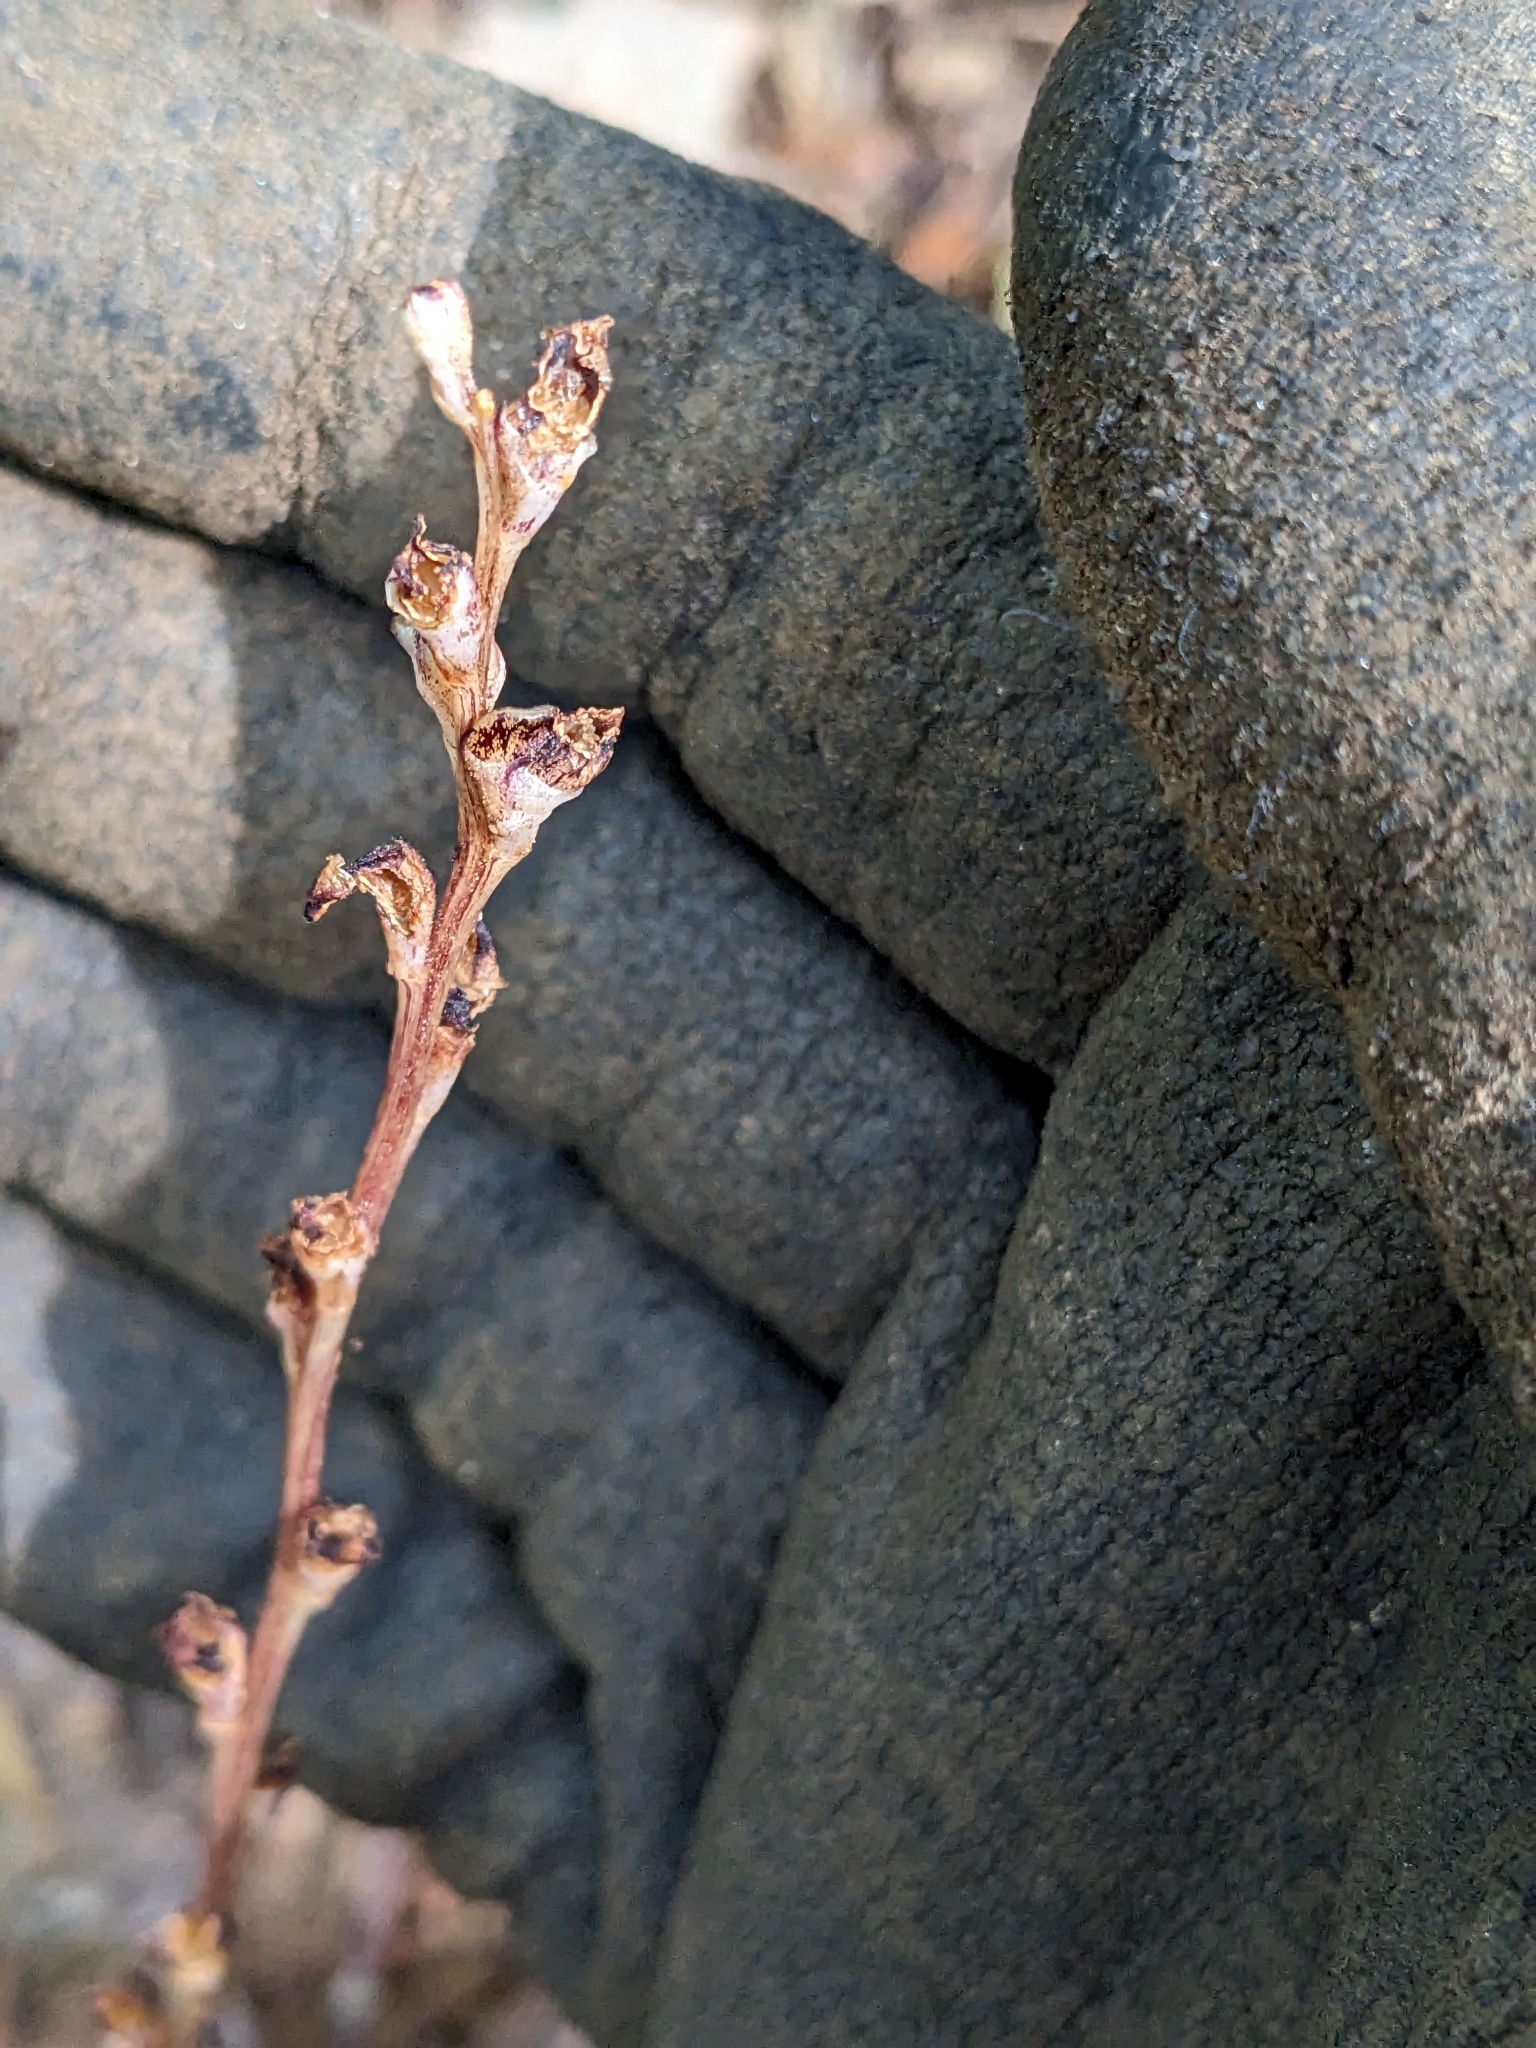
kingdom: Plantae
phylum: Tracheophyta
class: Magnoliopsida
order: Lamiales
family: Orobanchaceae
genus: Epifagus
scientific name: Epifagus virginiana
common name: Beechdrops
